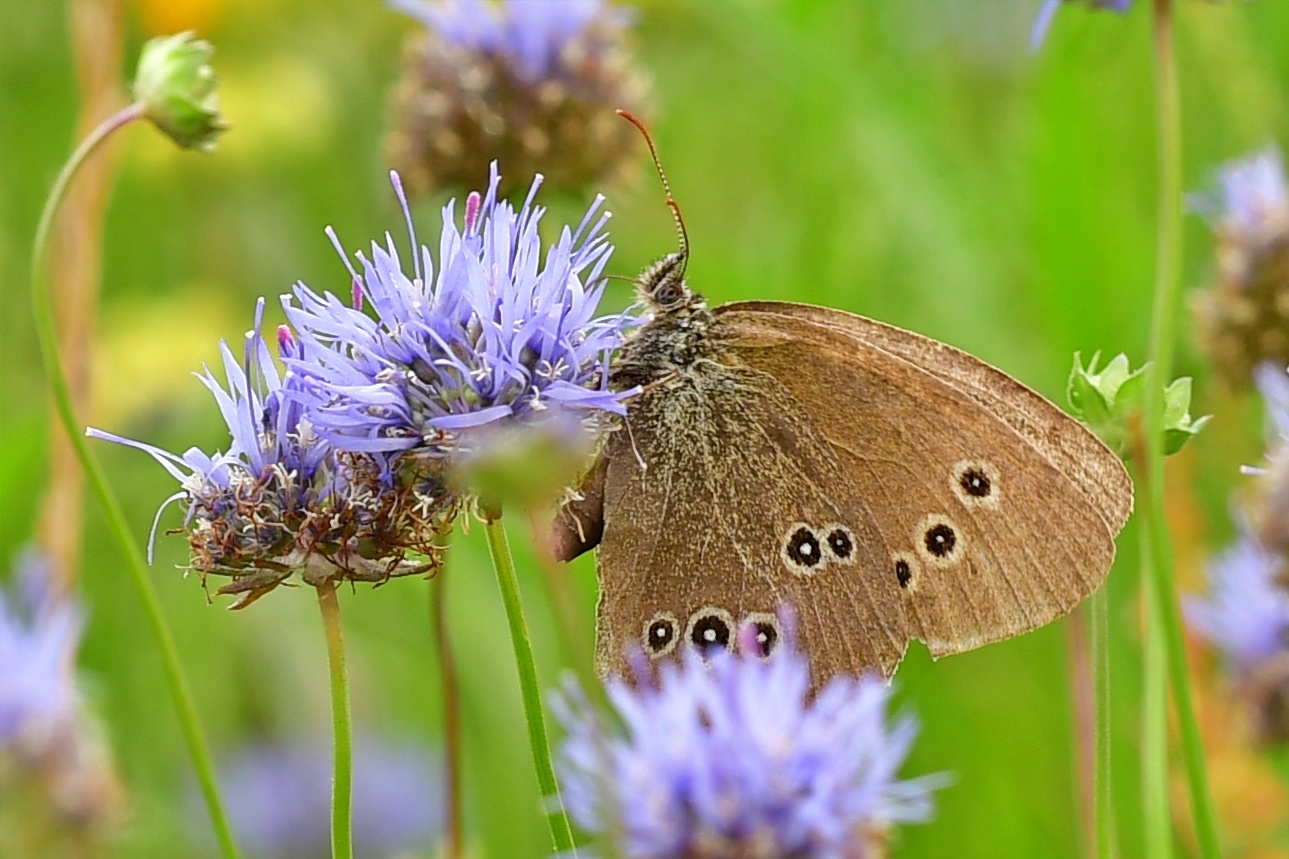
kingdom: Animalia
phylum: Arthropoda
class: Insecta
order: Lepidoptera
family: Nymphalidae
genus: Aphantopus
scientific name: Aphantopus hyperantus
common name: Ringlet
